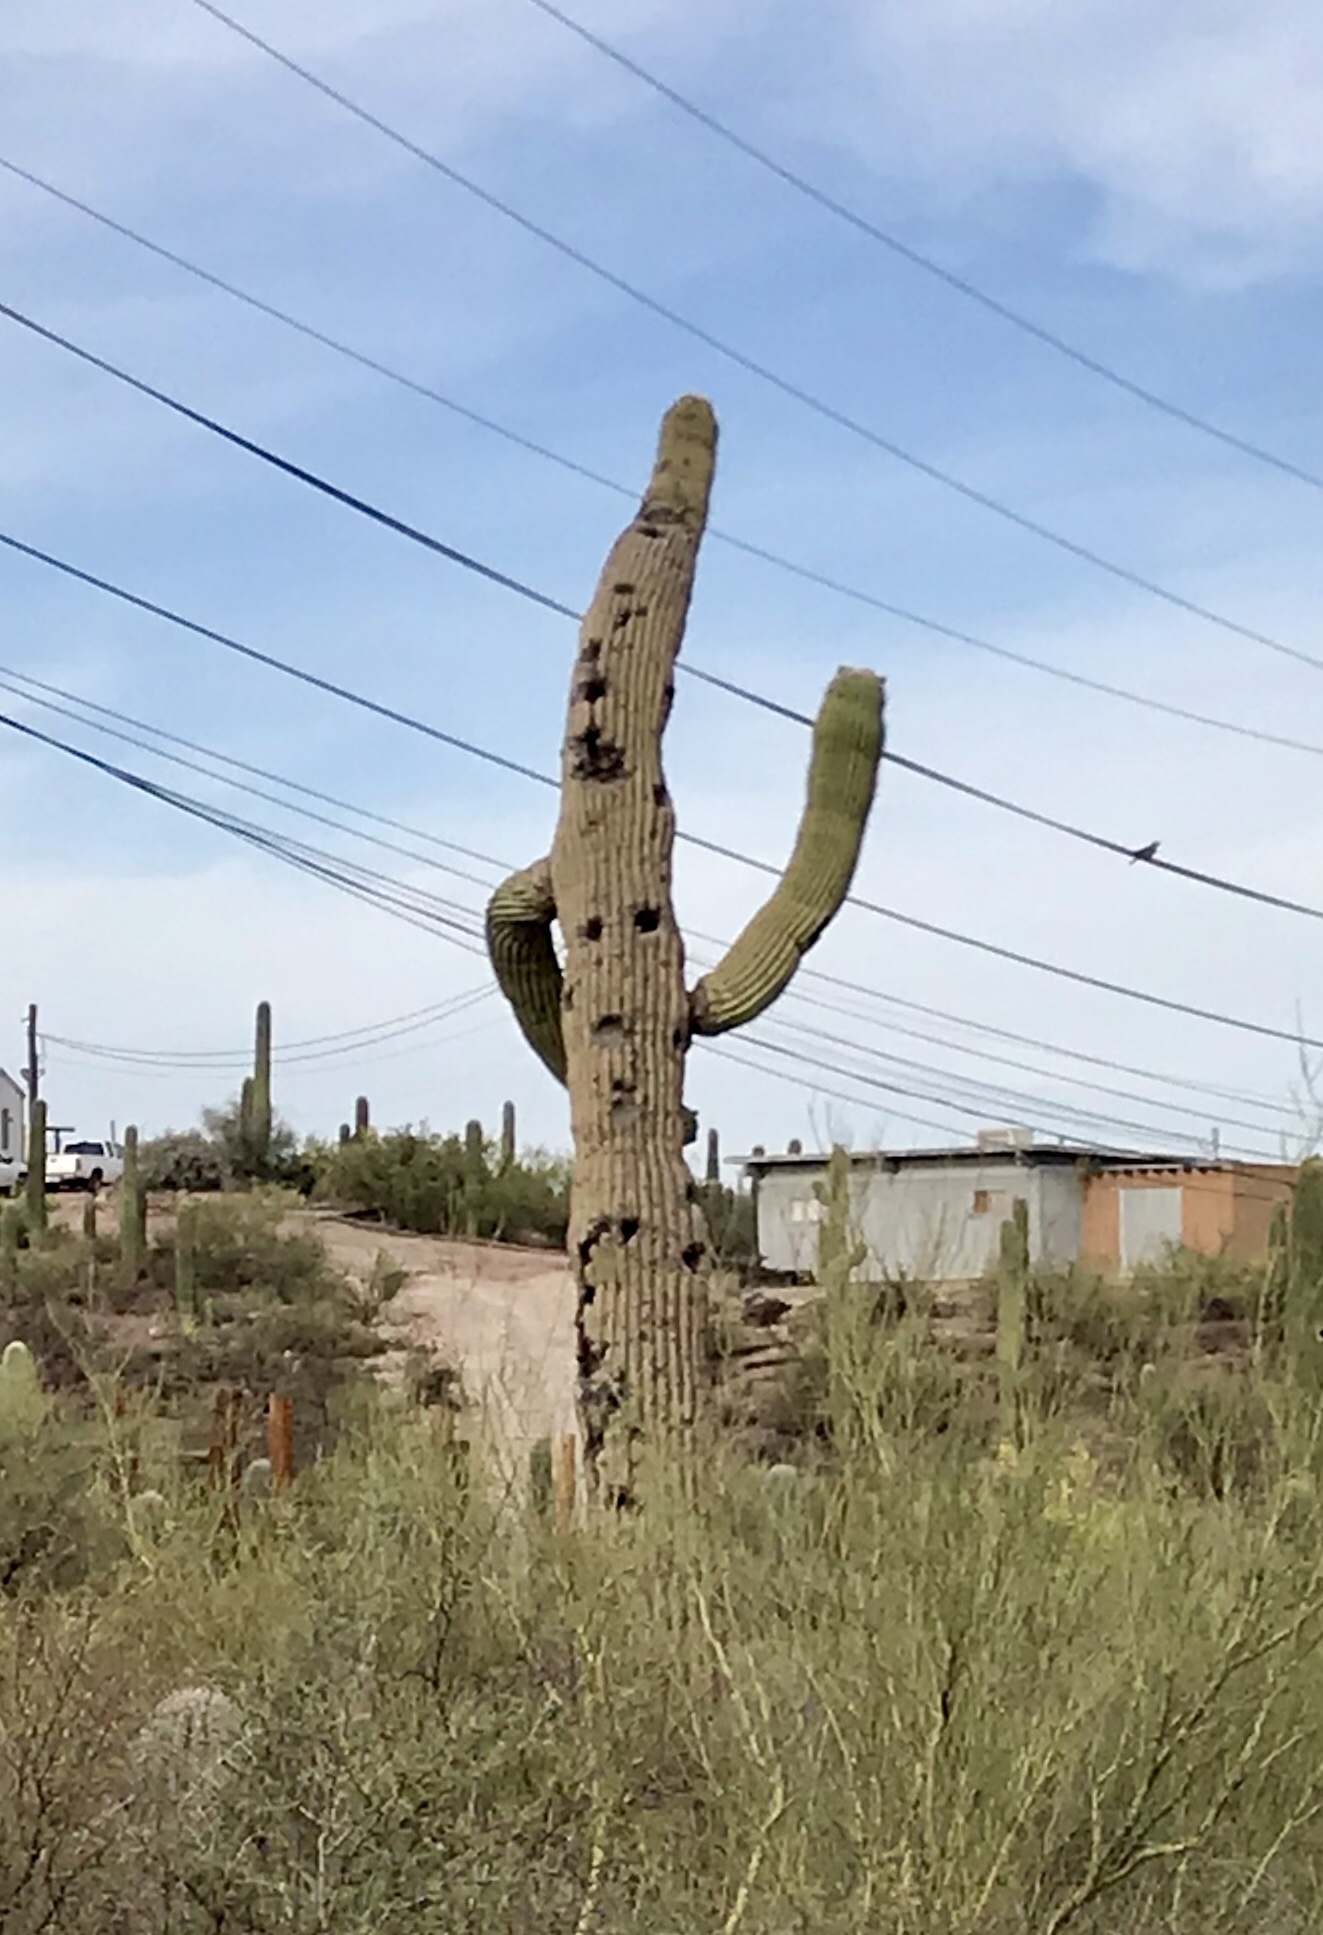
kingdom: Plantae
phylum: Tracheophyta
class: Magnoliopsida
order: Caryophyllales
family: Cactaceae
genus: Carnegiea
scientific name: Carnegiea gigantea
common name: Saguaro
